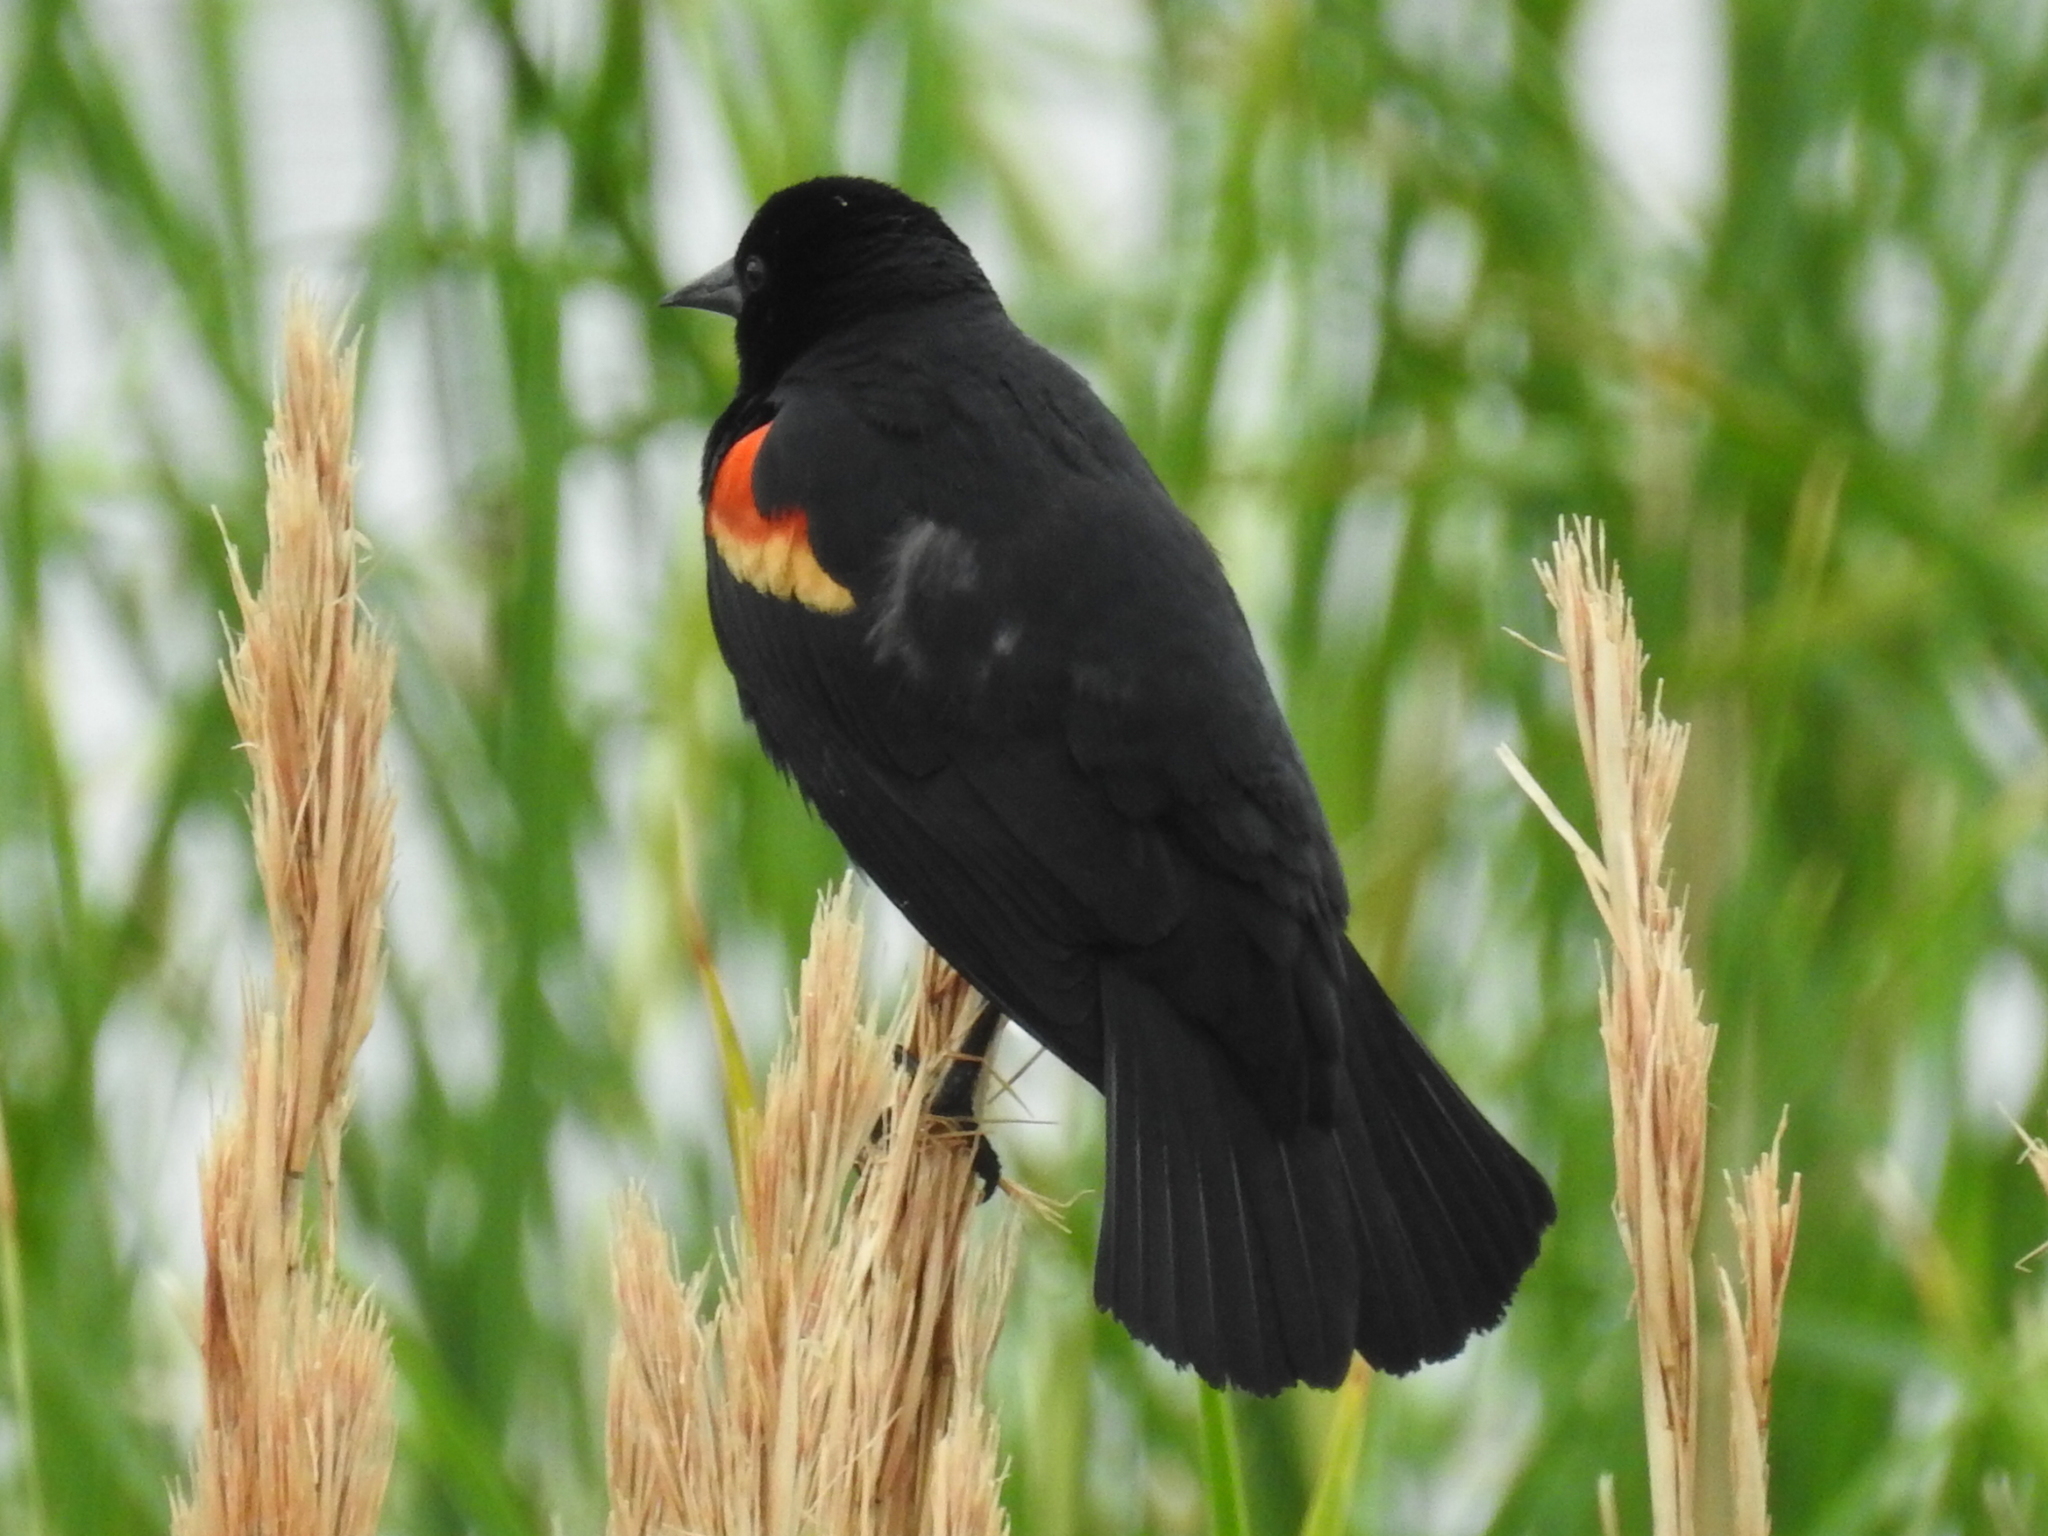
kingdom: Animalia
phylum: Chordata
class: Aves
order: Passeriformes
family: Icteridae
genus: Agelaius
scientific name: Agelaius phoeniceus
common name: Red-winged blackbird
